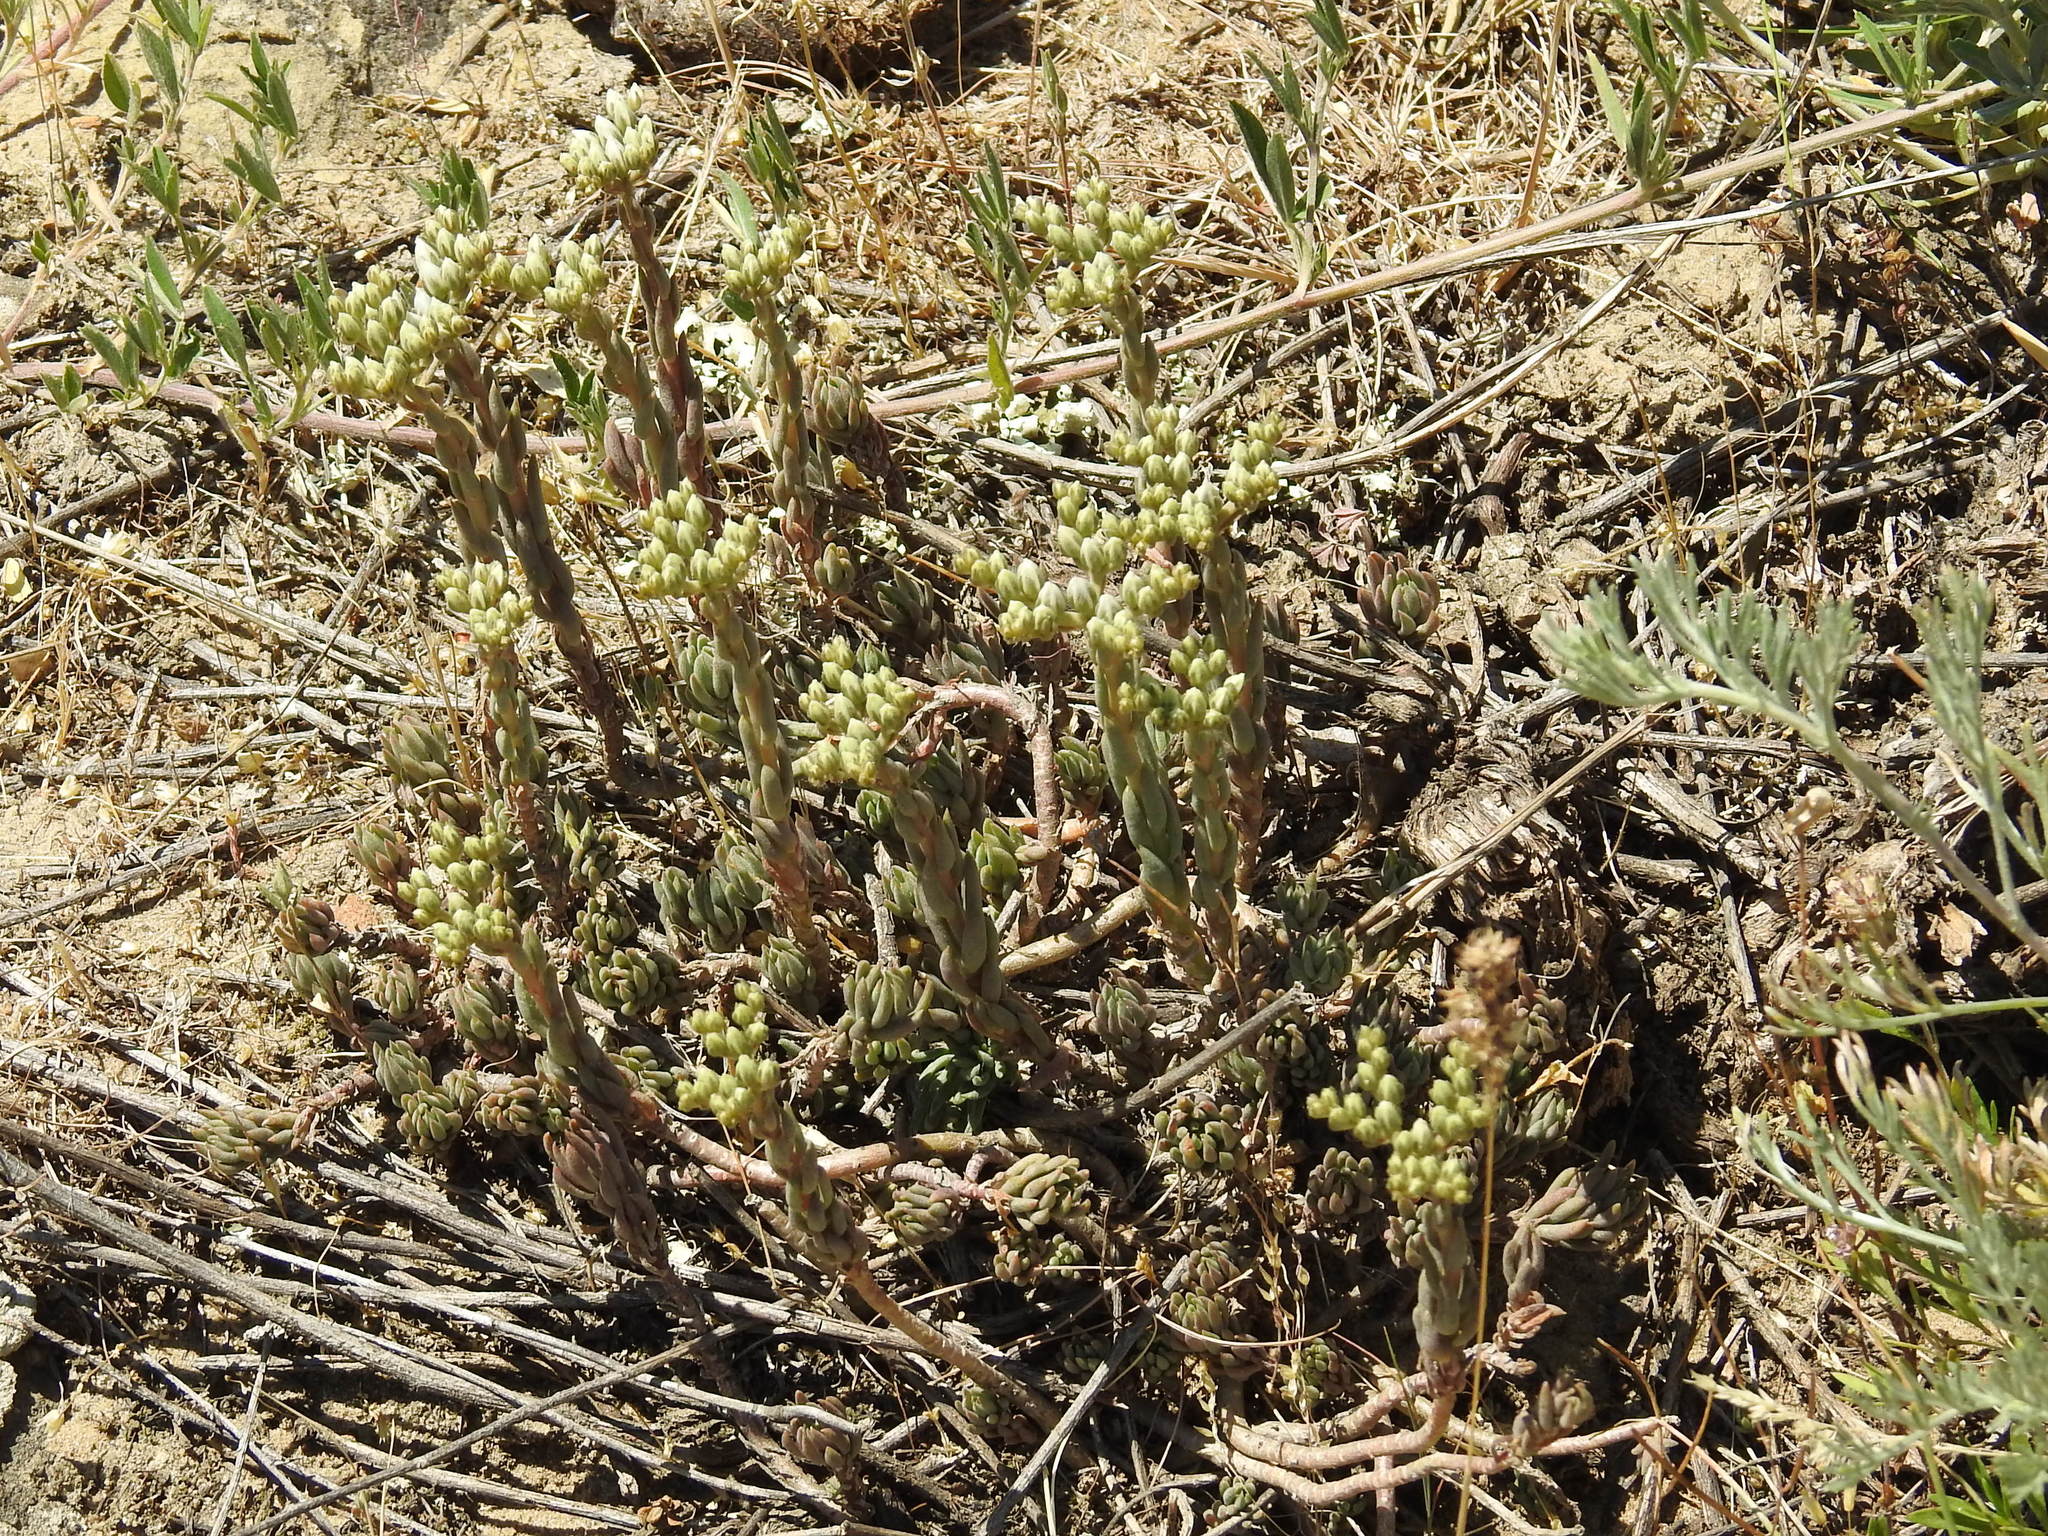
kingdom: Plantae
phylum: Tracheophyta
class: Magnoliopsida
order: Saxifragales
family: Crassulaceae
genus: Petrosedum
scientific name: Petrosedum subulatum
